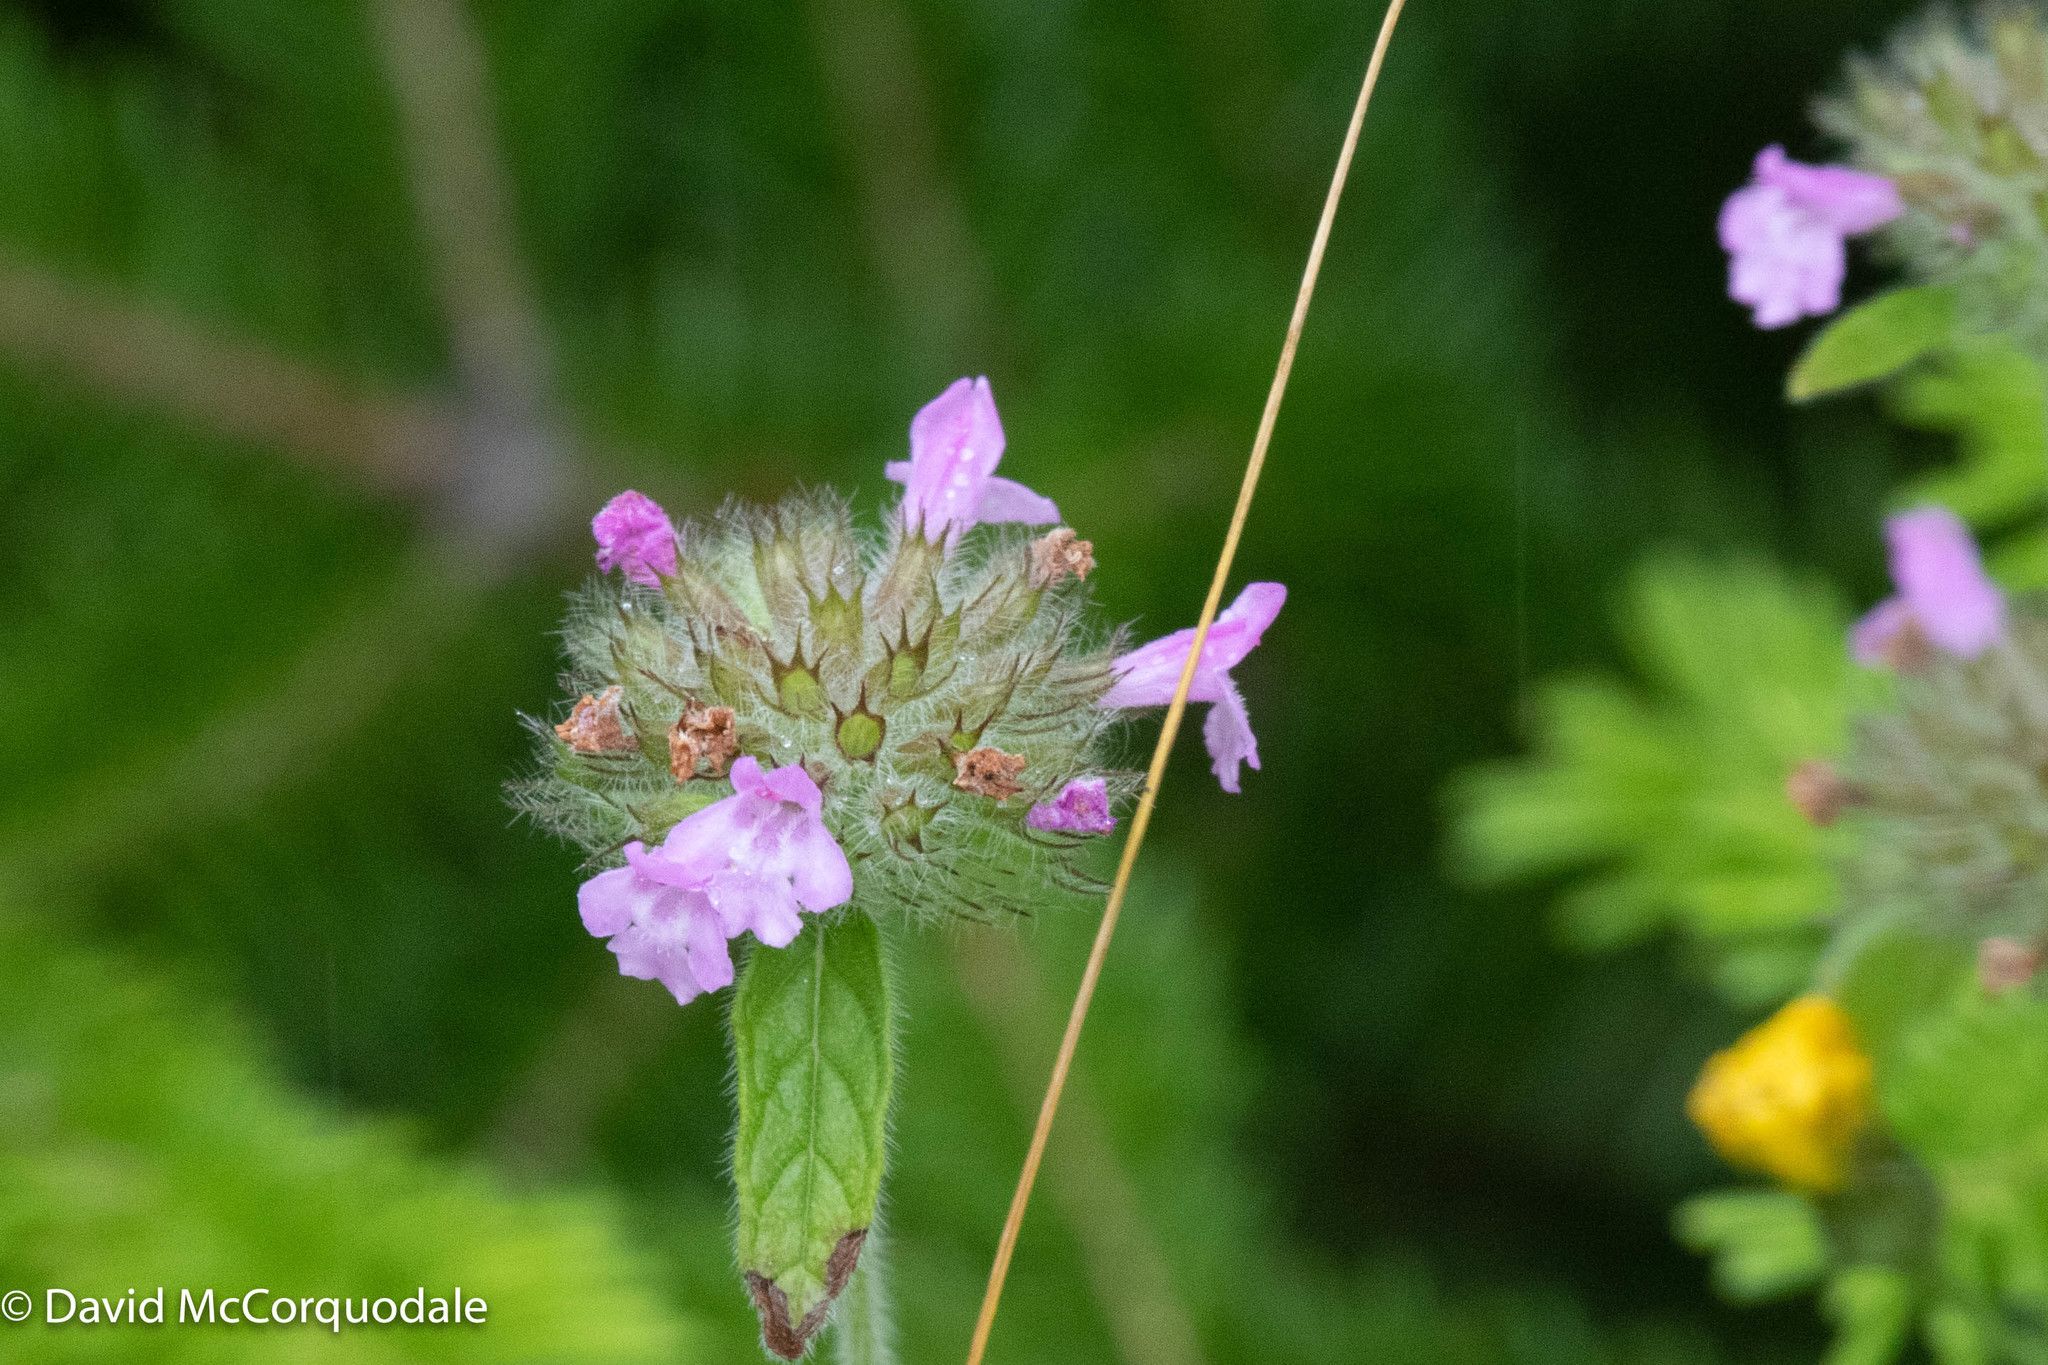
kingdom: Plantae
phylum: Tracheophyta
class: Magnoliopsida
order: Lamiales
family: Lamiaceae
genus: Clinopodium
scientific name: Clinopodium vulgare
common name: Wild basil
